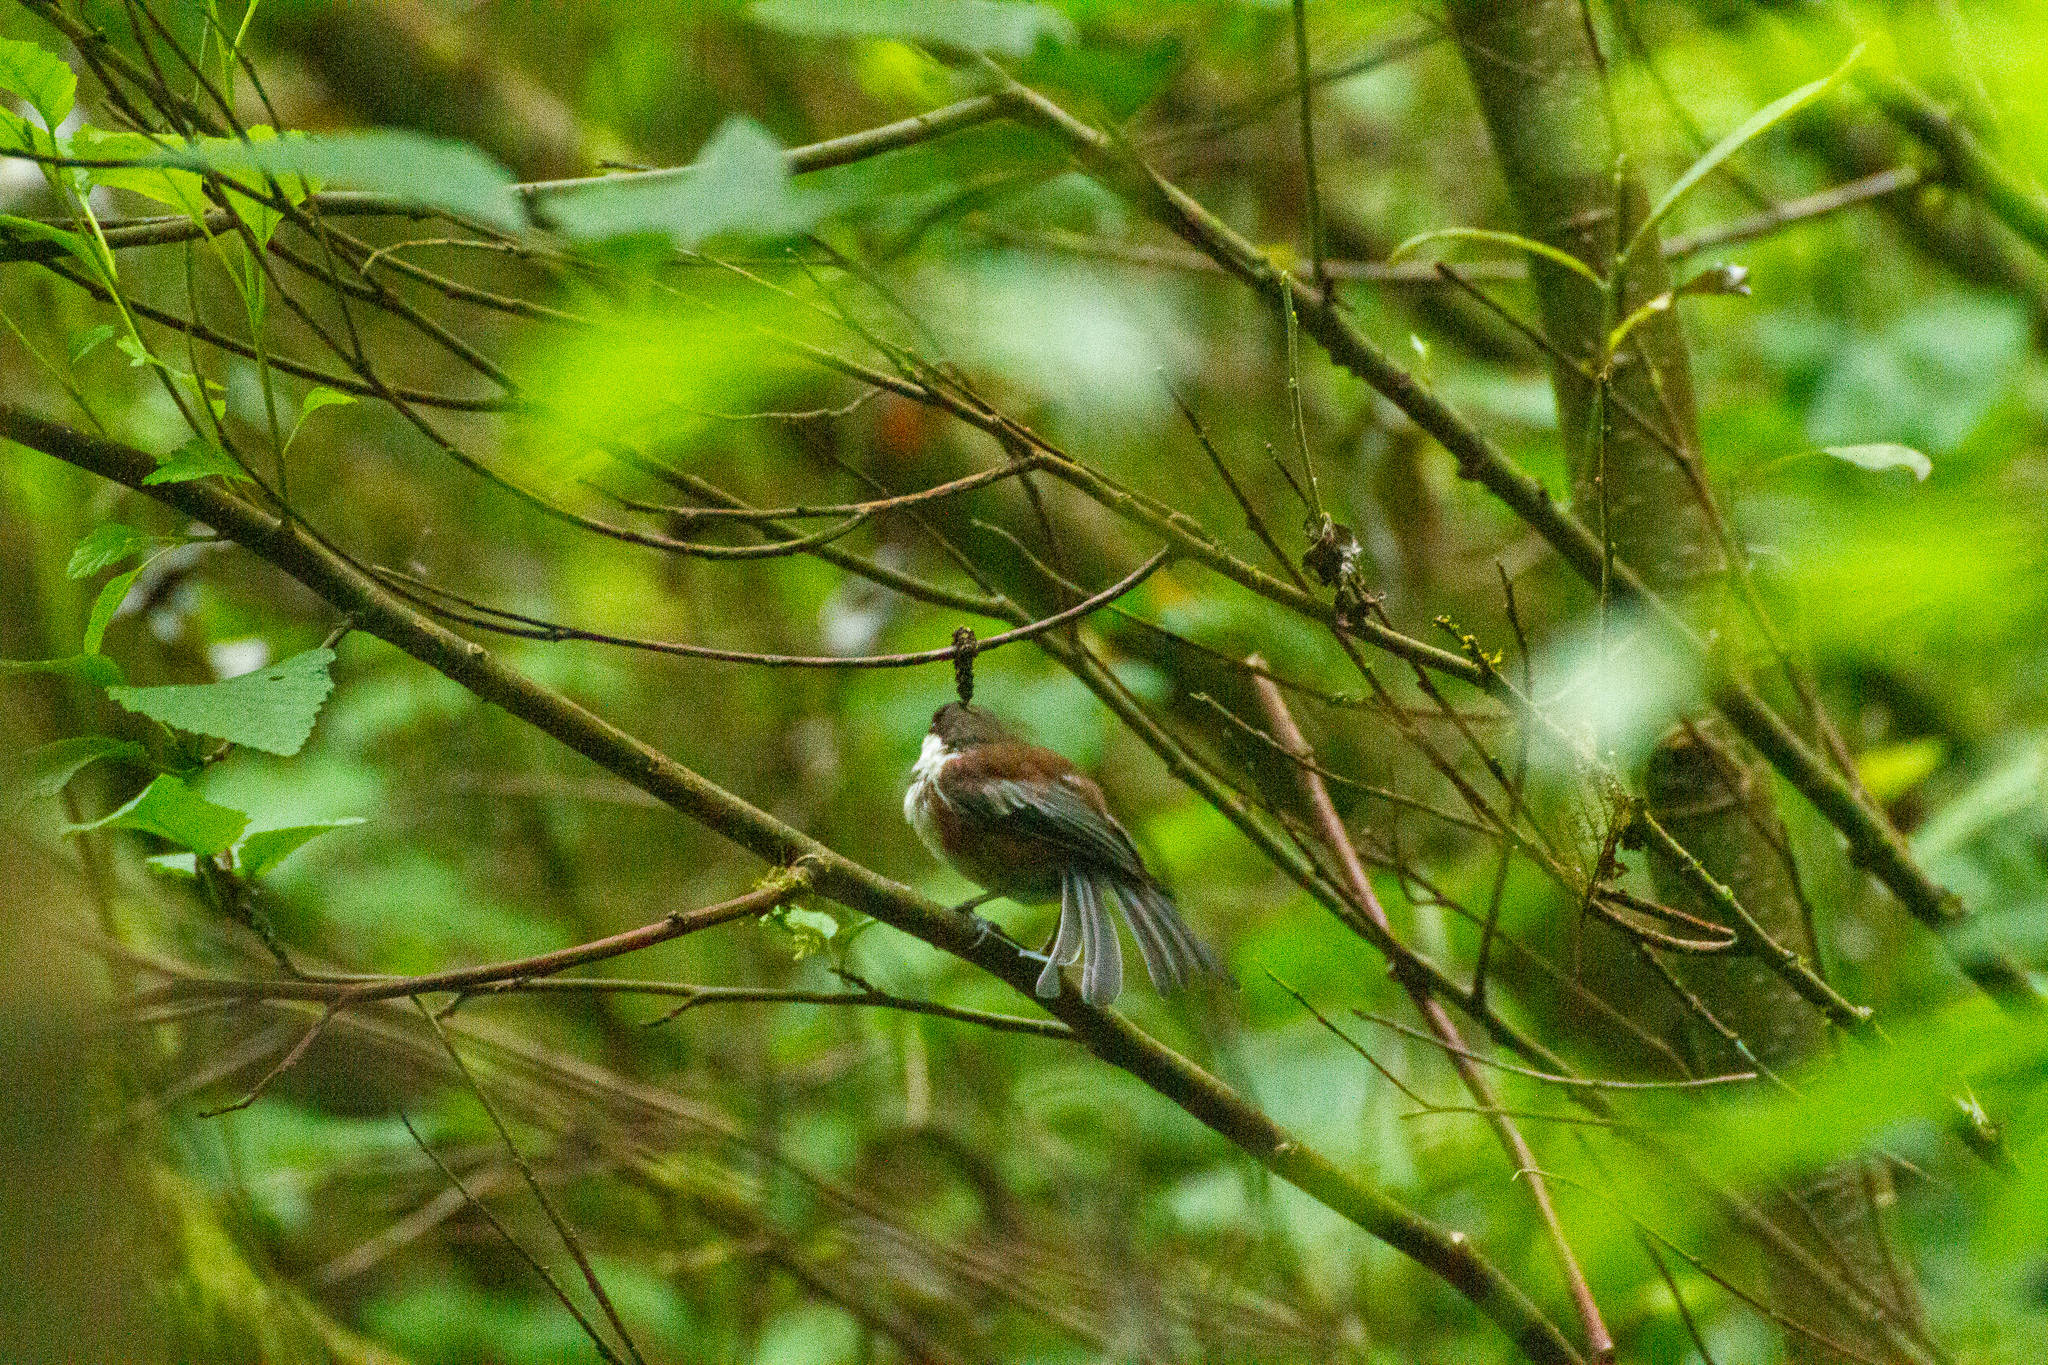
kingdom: Animalia
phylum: Chordata
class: Aves
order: Passeriformes
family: Paridae
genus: Poecile
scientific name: Poecile rufescens
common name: Chestnut-backed chickadee
